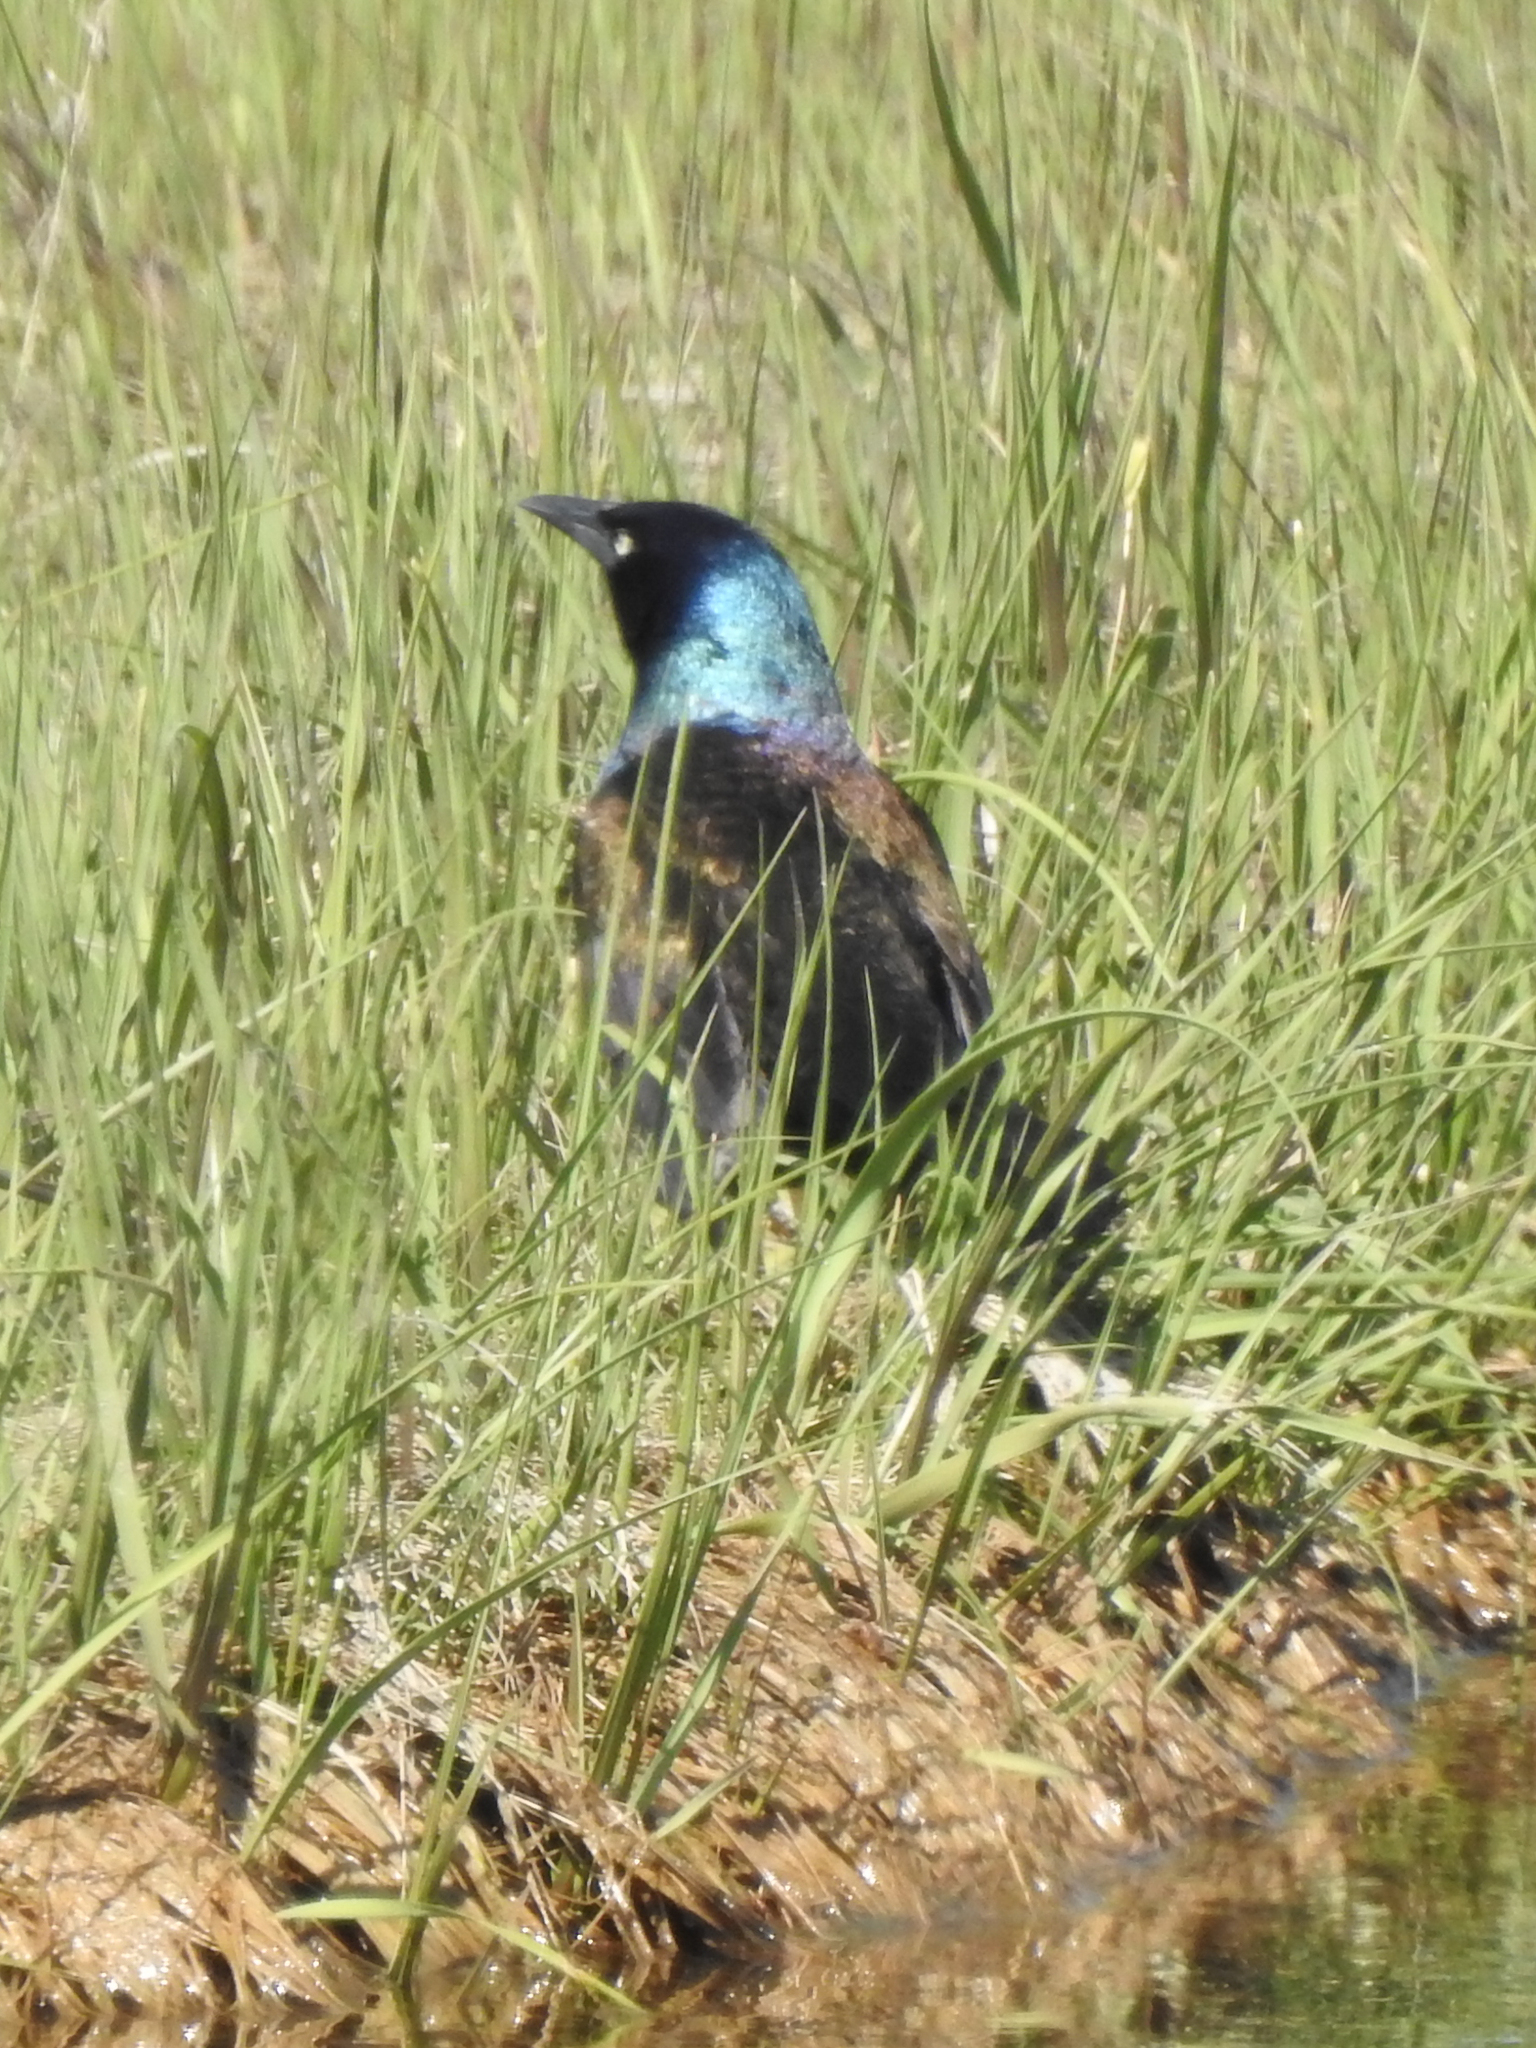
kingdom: Animalia
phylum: Chordata
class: Aves
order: Passeriformes
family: Icteridae
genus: Quiscalus
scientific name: Quiscalus quiscula
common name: Common grackle
